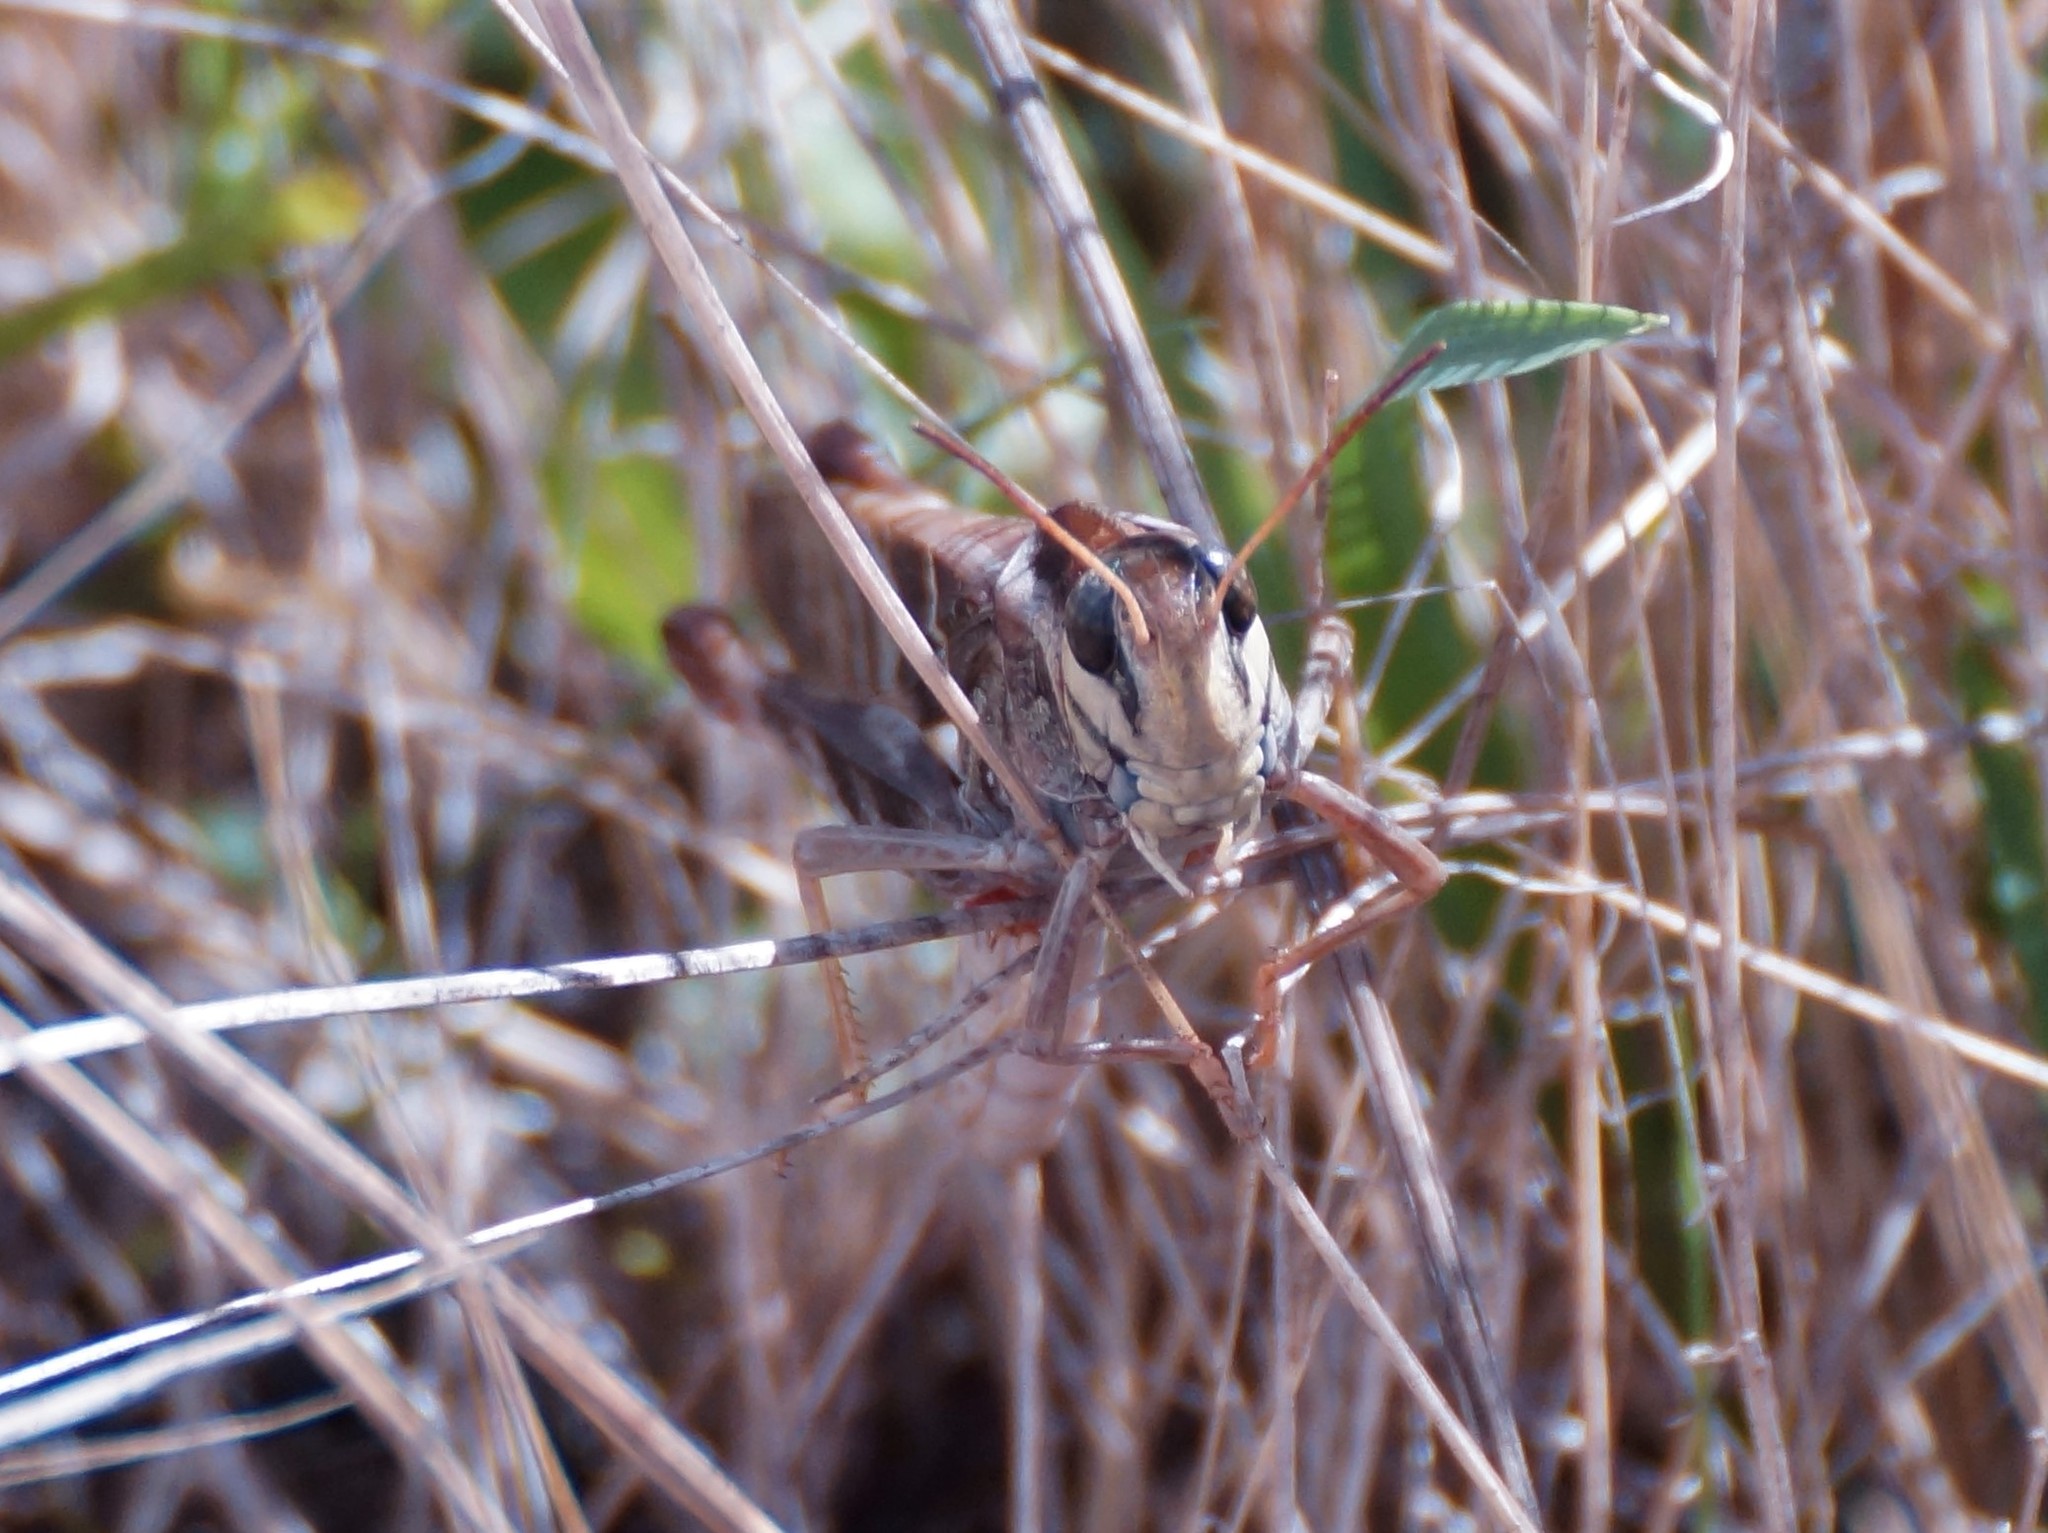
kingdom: Animalia
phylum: Arthropoda
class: Insecta
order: Orthoptera
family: Acrididae
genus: Gastrimargus
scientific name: Gastrimargus musicus
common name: Yellow-winged locust
